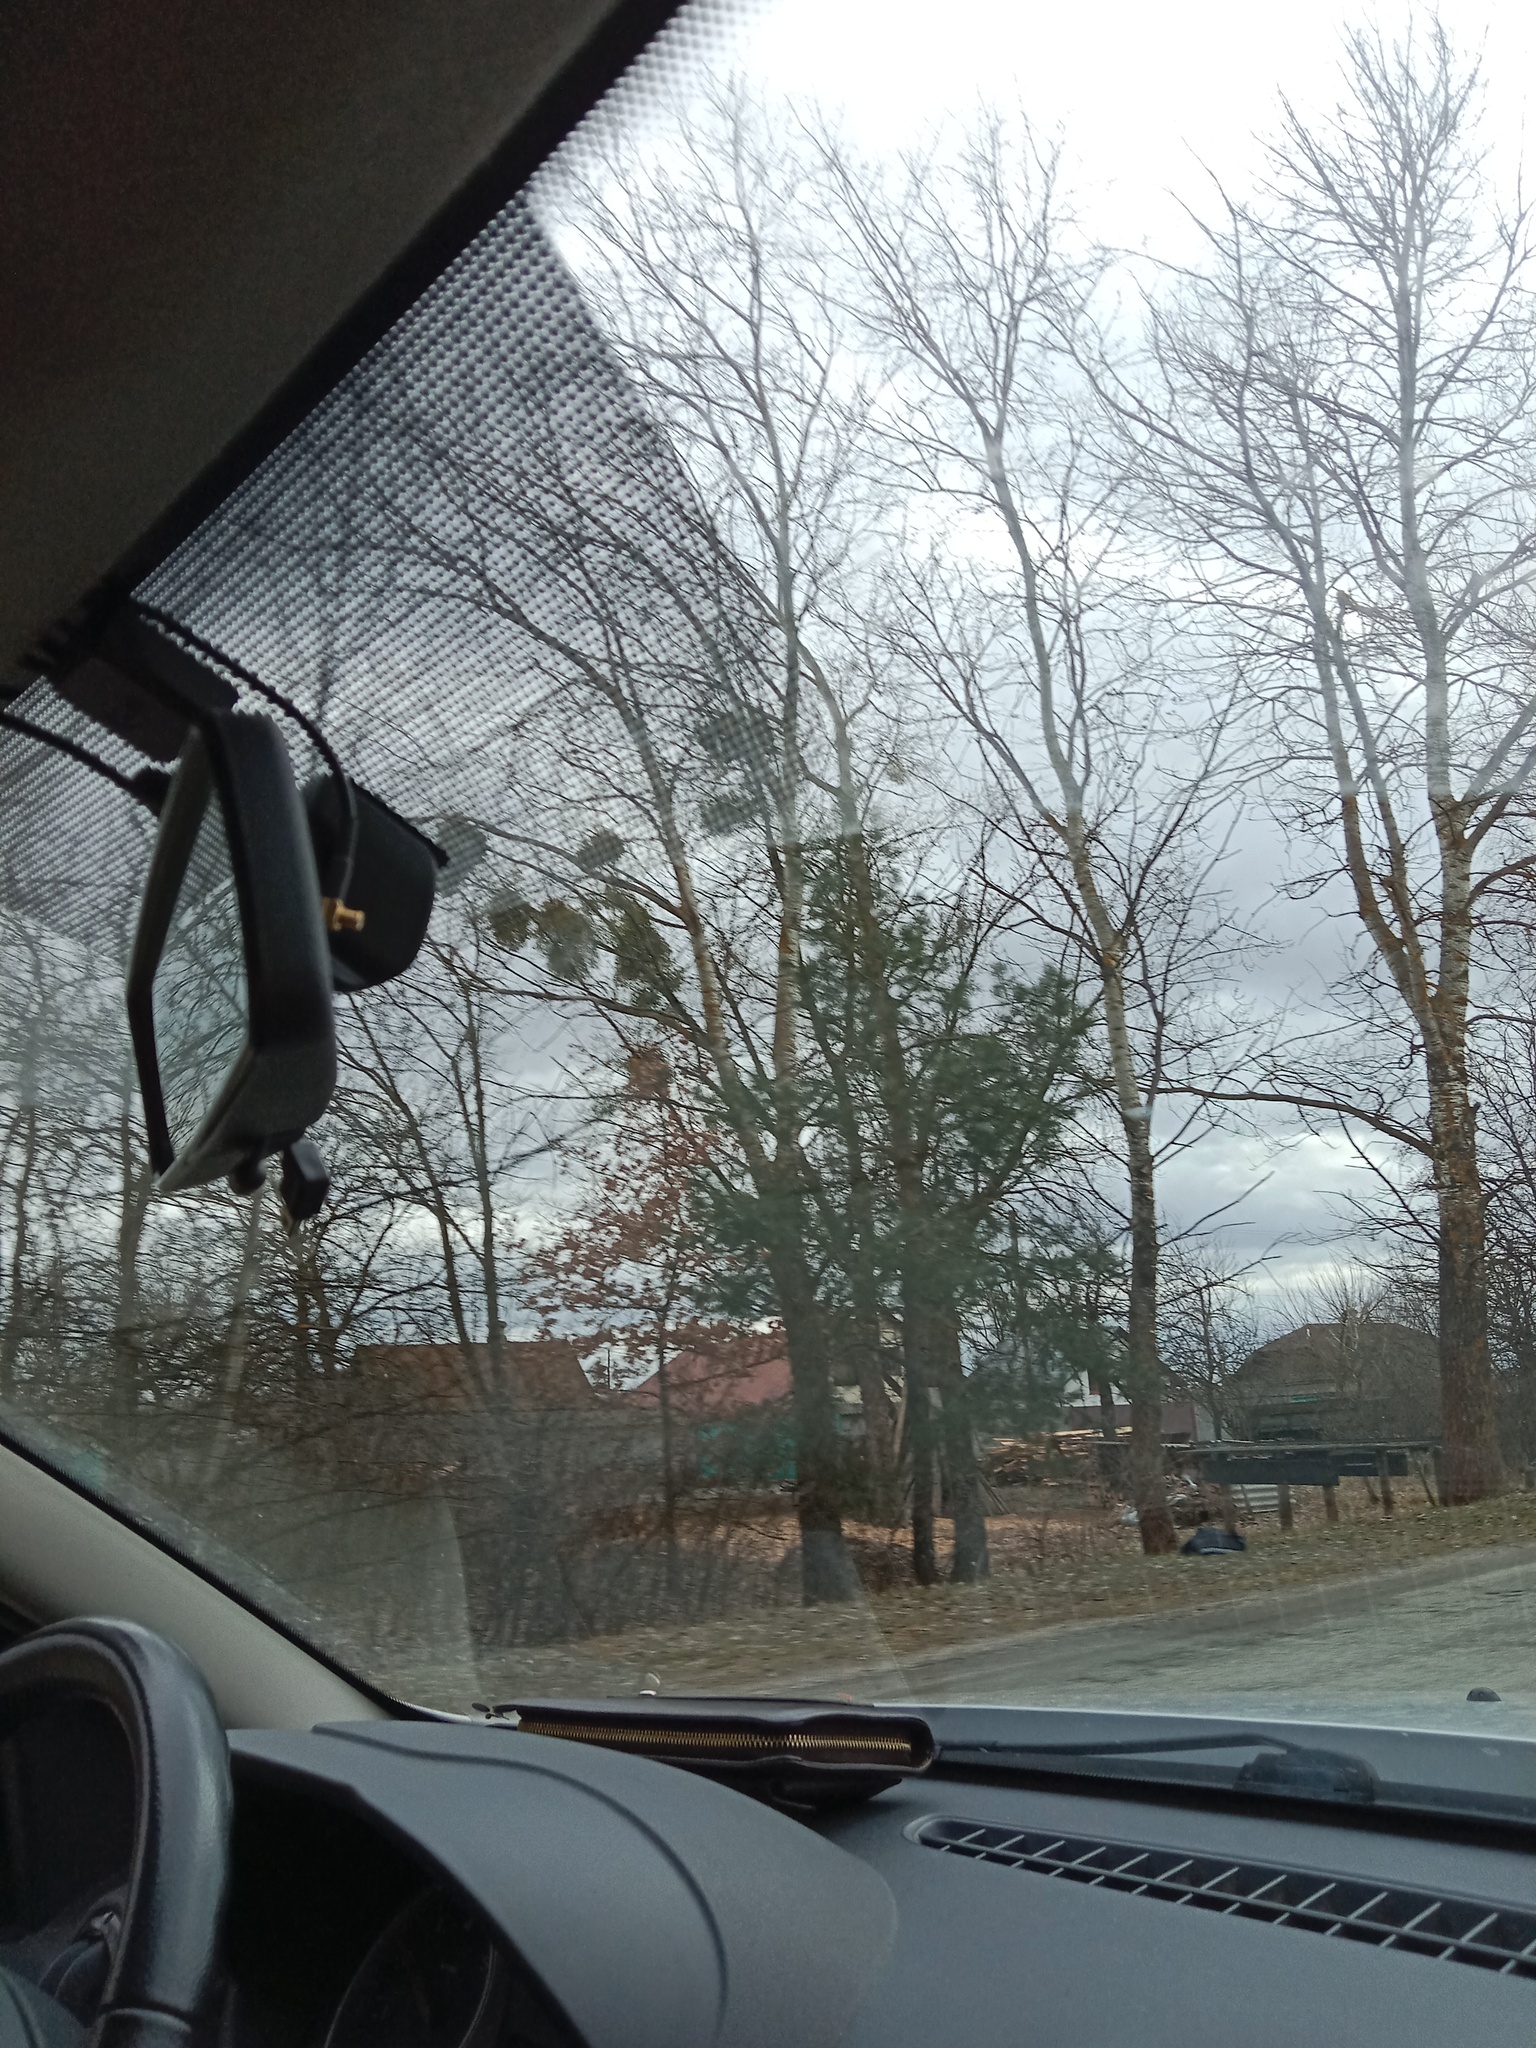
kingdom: Plantae
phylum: Tracheophyta
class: Magnoliopsida
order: Santalales
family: Viscaceae
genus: Viscum
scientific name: Viscum album
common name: Mistletoe
